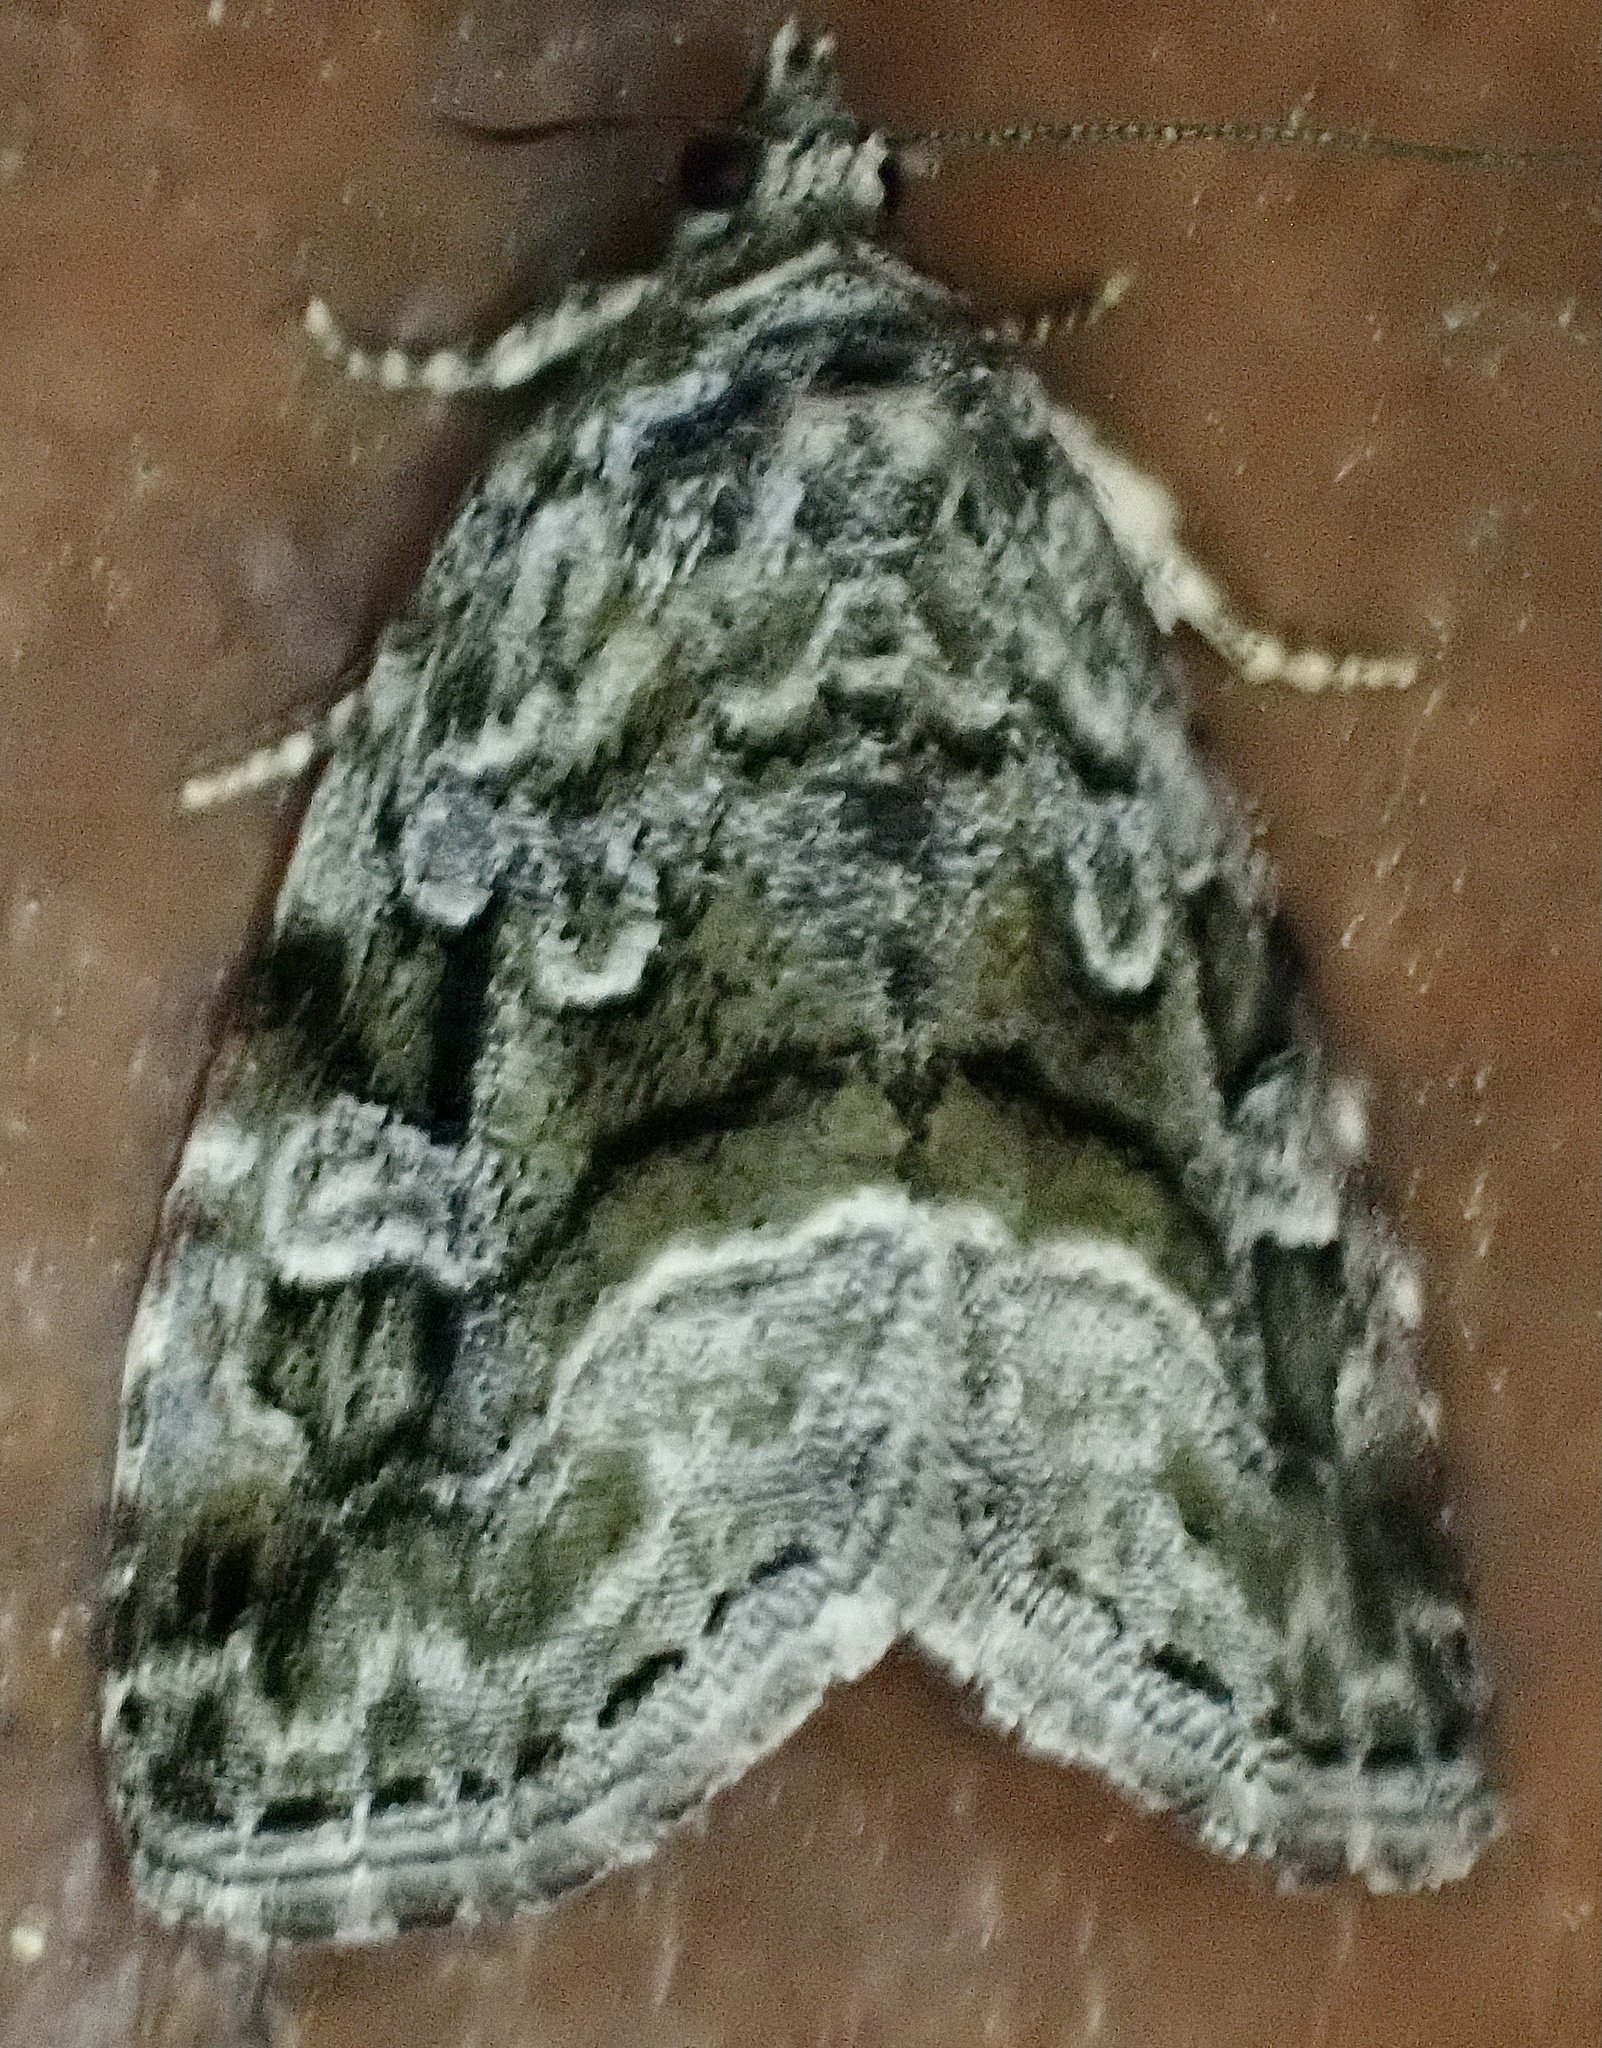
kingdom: Animalia
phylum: Arthropoda
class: Insecta
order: Lepidoptera
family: Noctuidae
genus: Protodeltote
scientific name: Protodeltote muscosula
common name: Large mossy glyph
